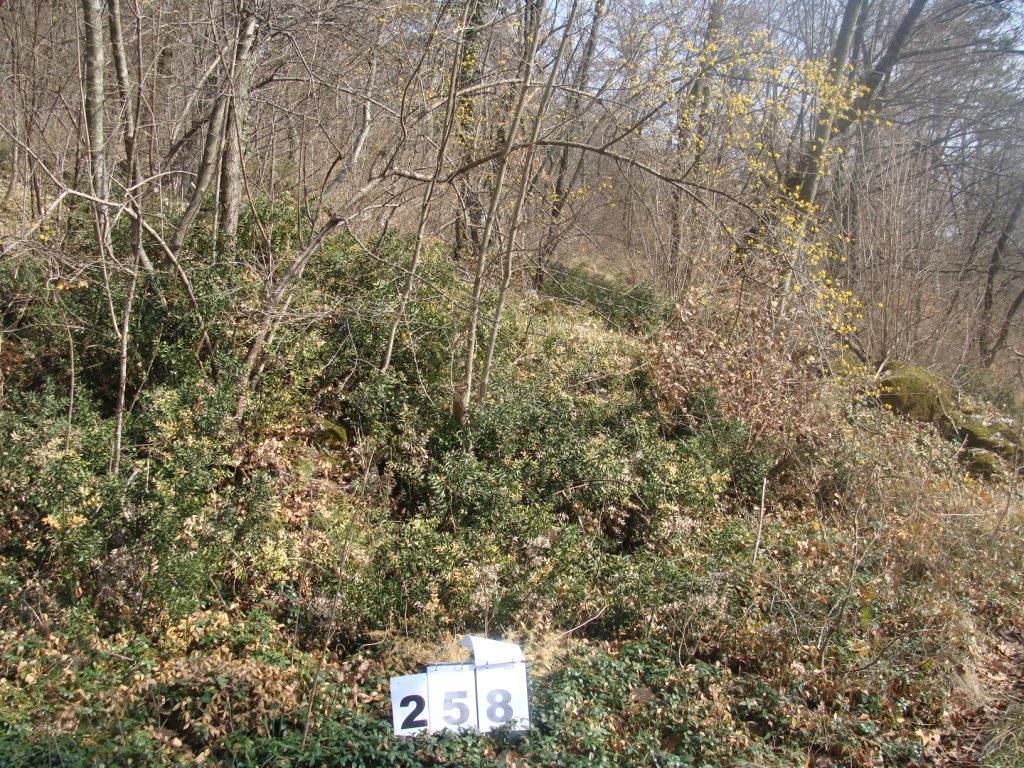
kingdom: Plantae
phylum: Tracheophyta
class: Magnoliopsida
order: Cornales
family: Cornaceae
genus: Cornus
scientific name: Cornus mas
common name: Cornelian-cherry
